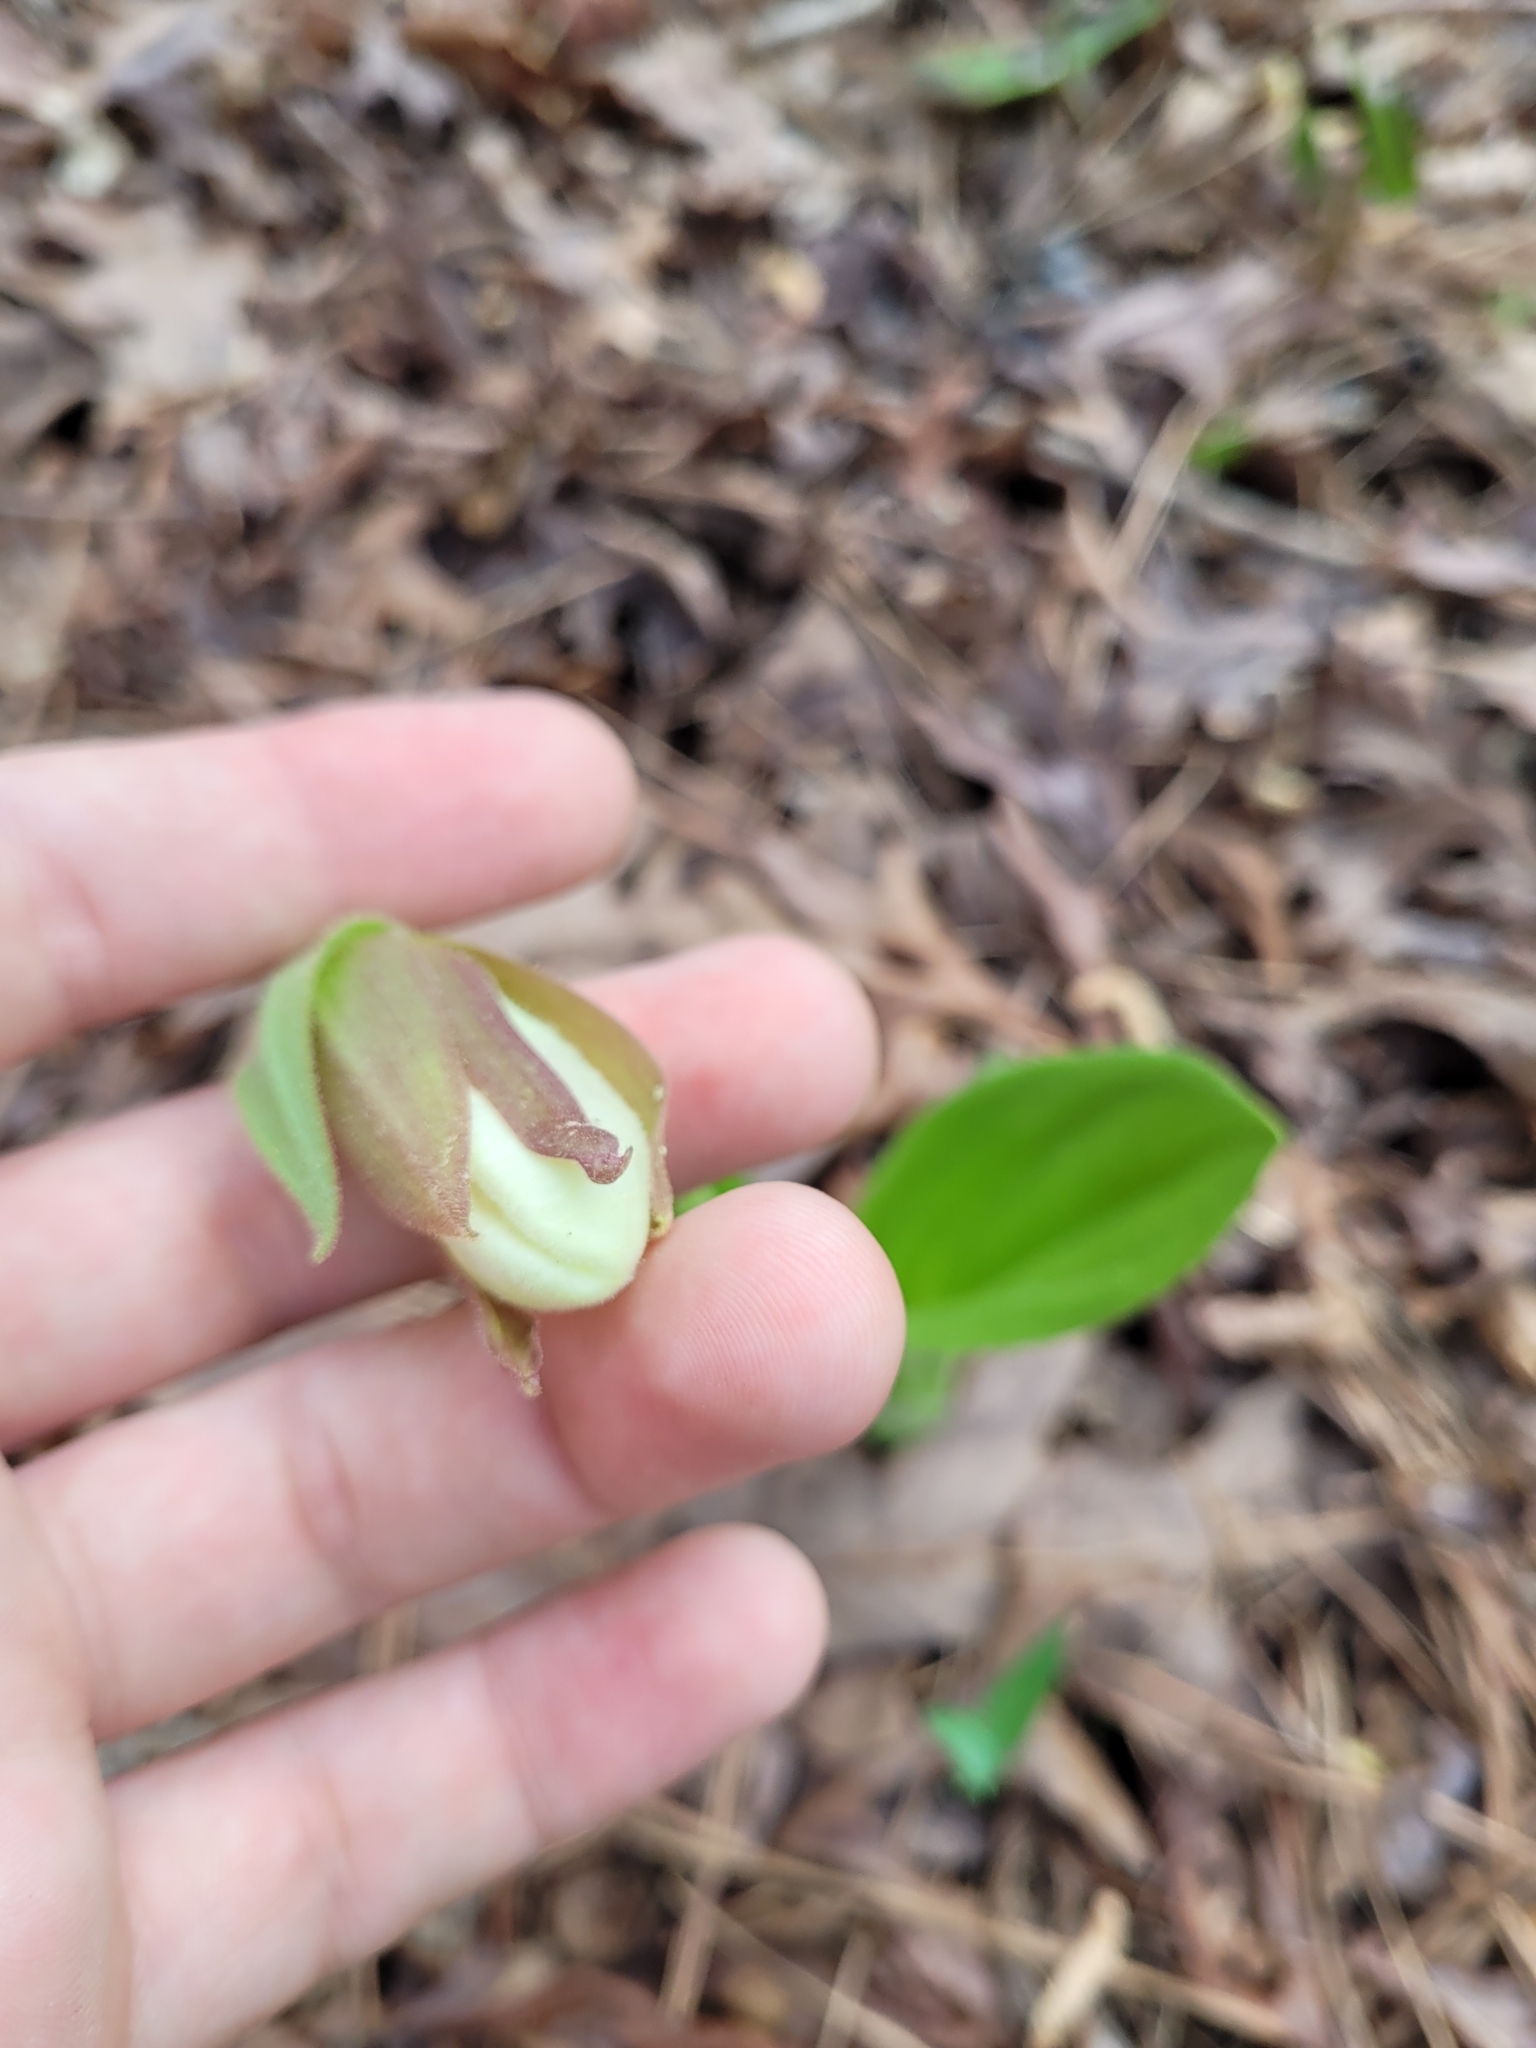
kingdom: Plantae
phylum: Tracheophyta
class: Liliopsida
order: Asparagales
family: Orchidaceae
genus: Cypripedium
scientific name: Cypripedium acaule
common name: Pink lady's-slipper
